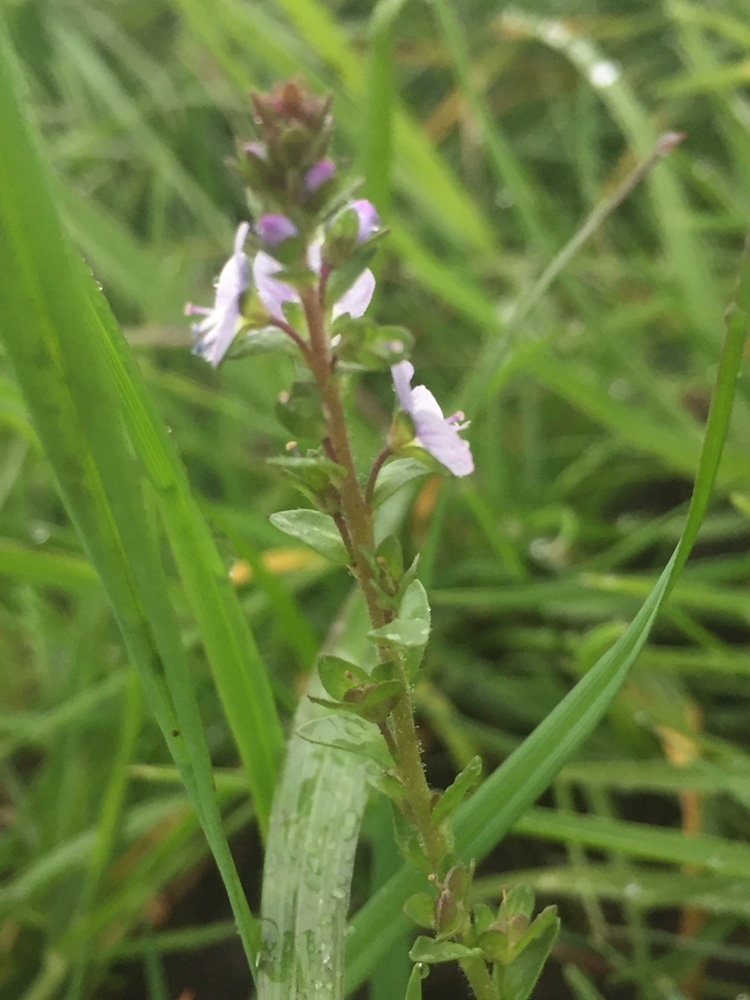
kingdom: Plantae
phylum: Tracheophyta
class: Magnoliopsida
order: Lamiales
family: Plantaginaceae
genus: Veronica
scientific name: Veronica serpyllifolia
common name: Thyme-leaved speedwell
